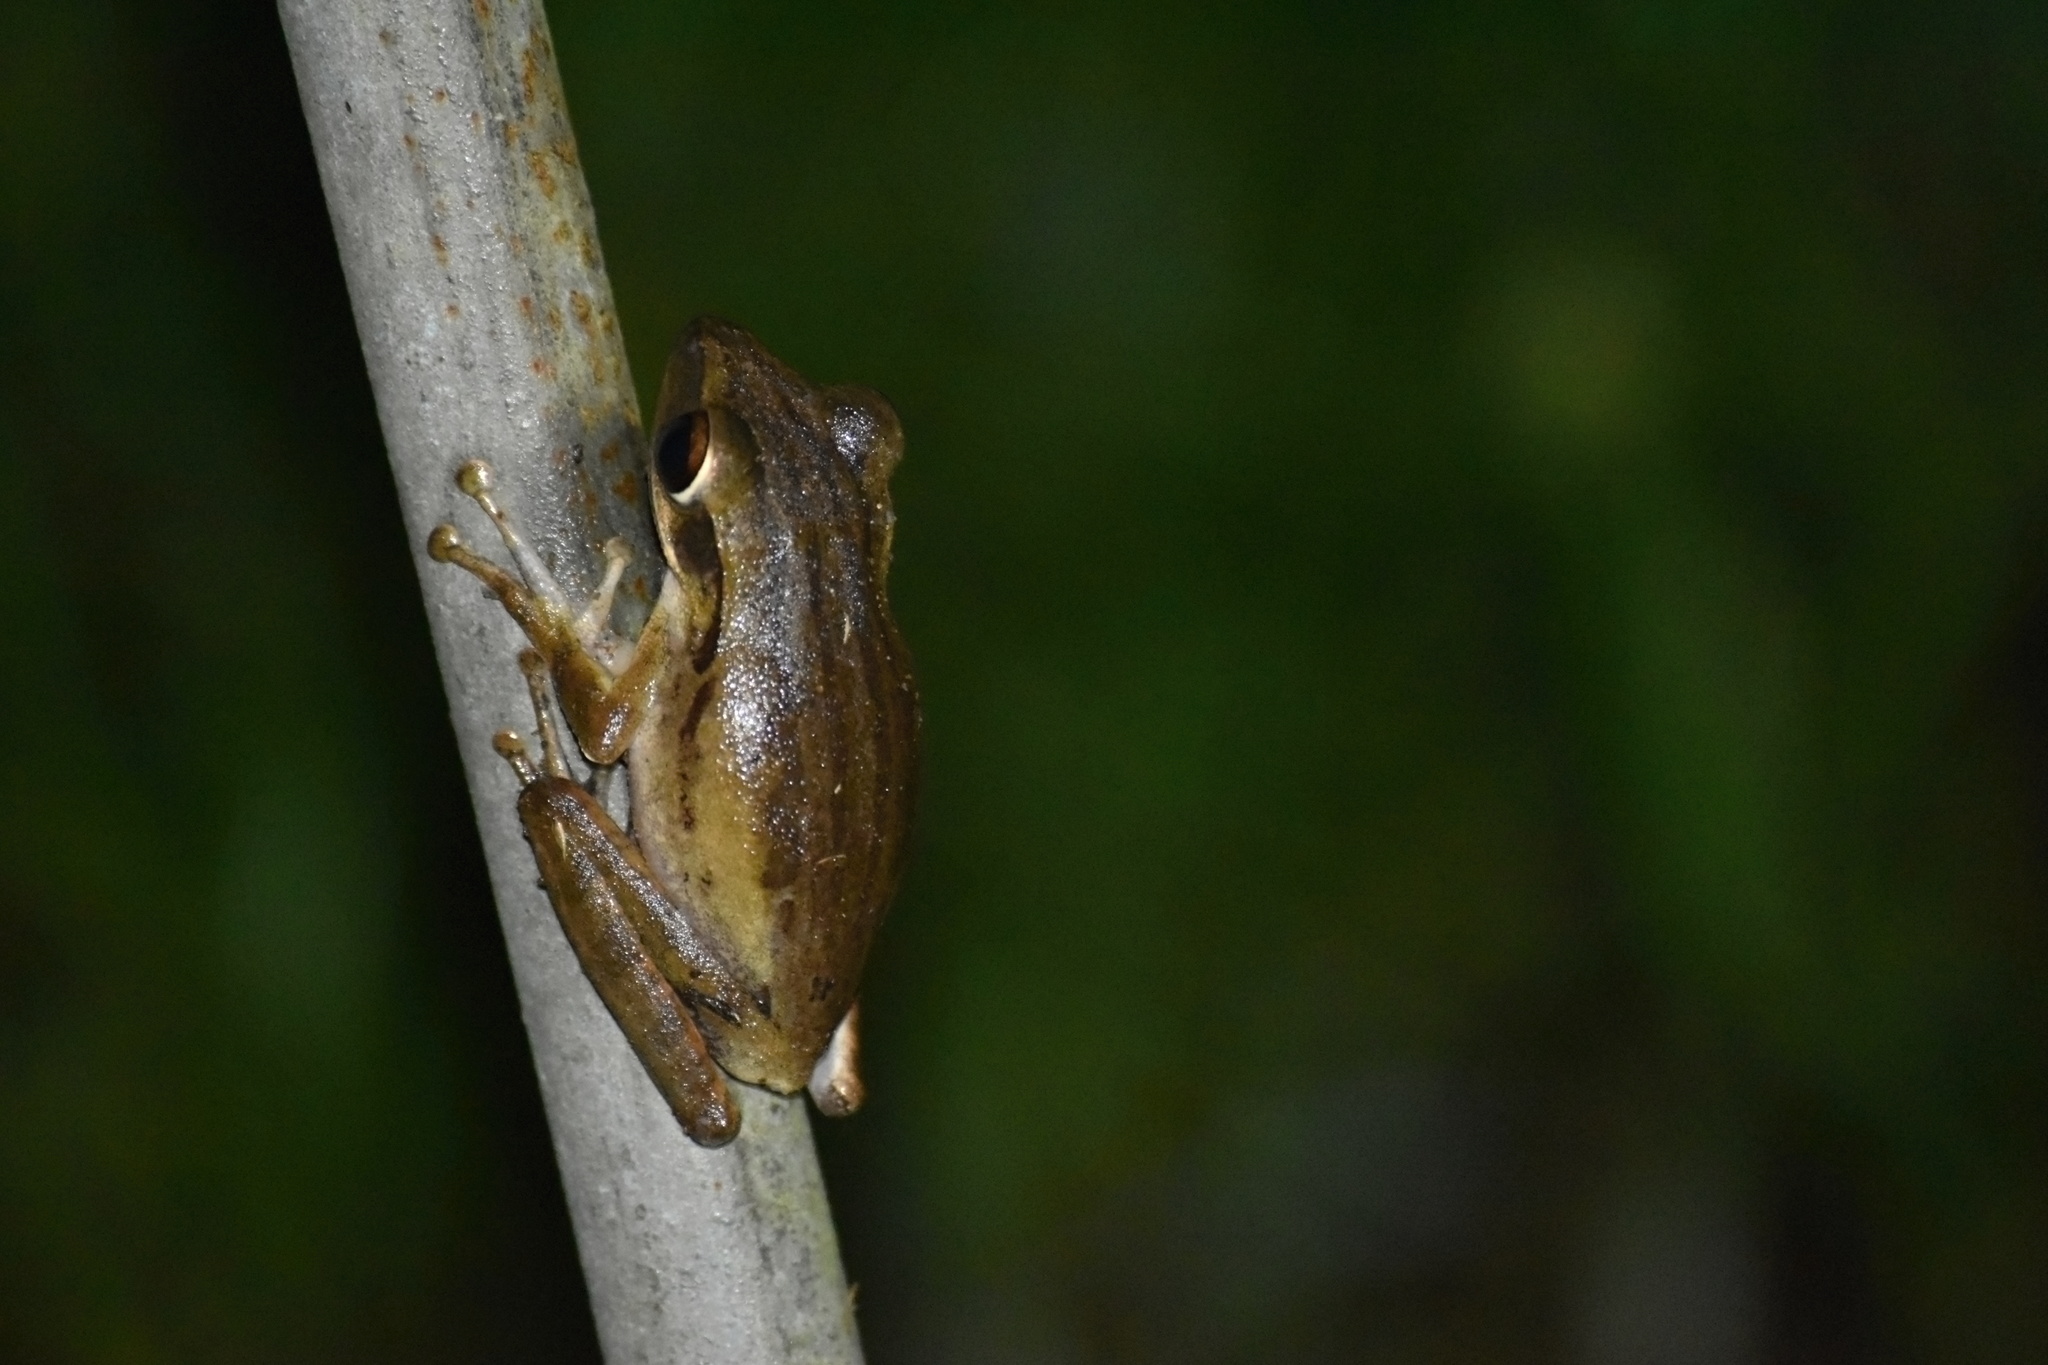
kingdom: Animalia
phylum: Chordata
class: Amphibia
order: Anura
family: Rhacophoridae
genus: Polypedates
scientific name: Polypedates leucomystax
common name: Common tree frog/four-lined tree frog
